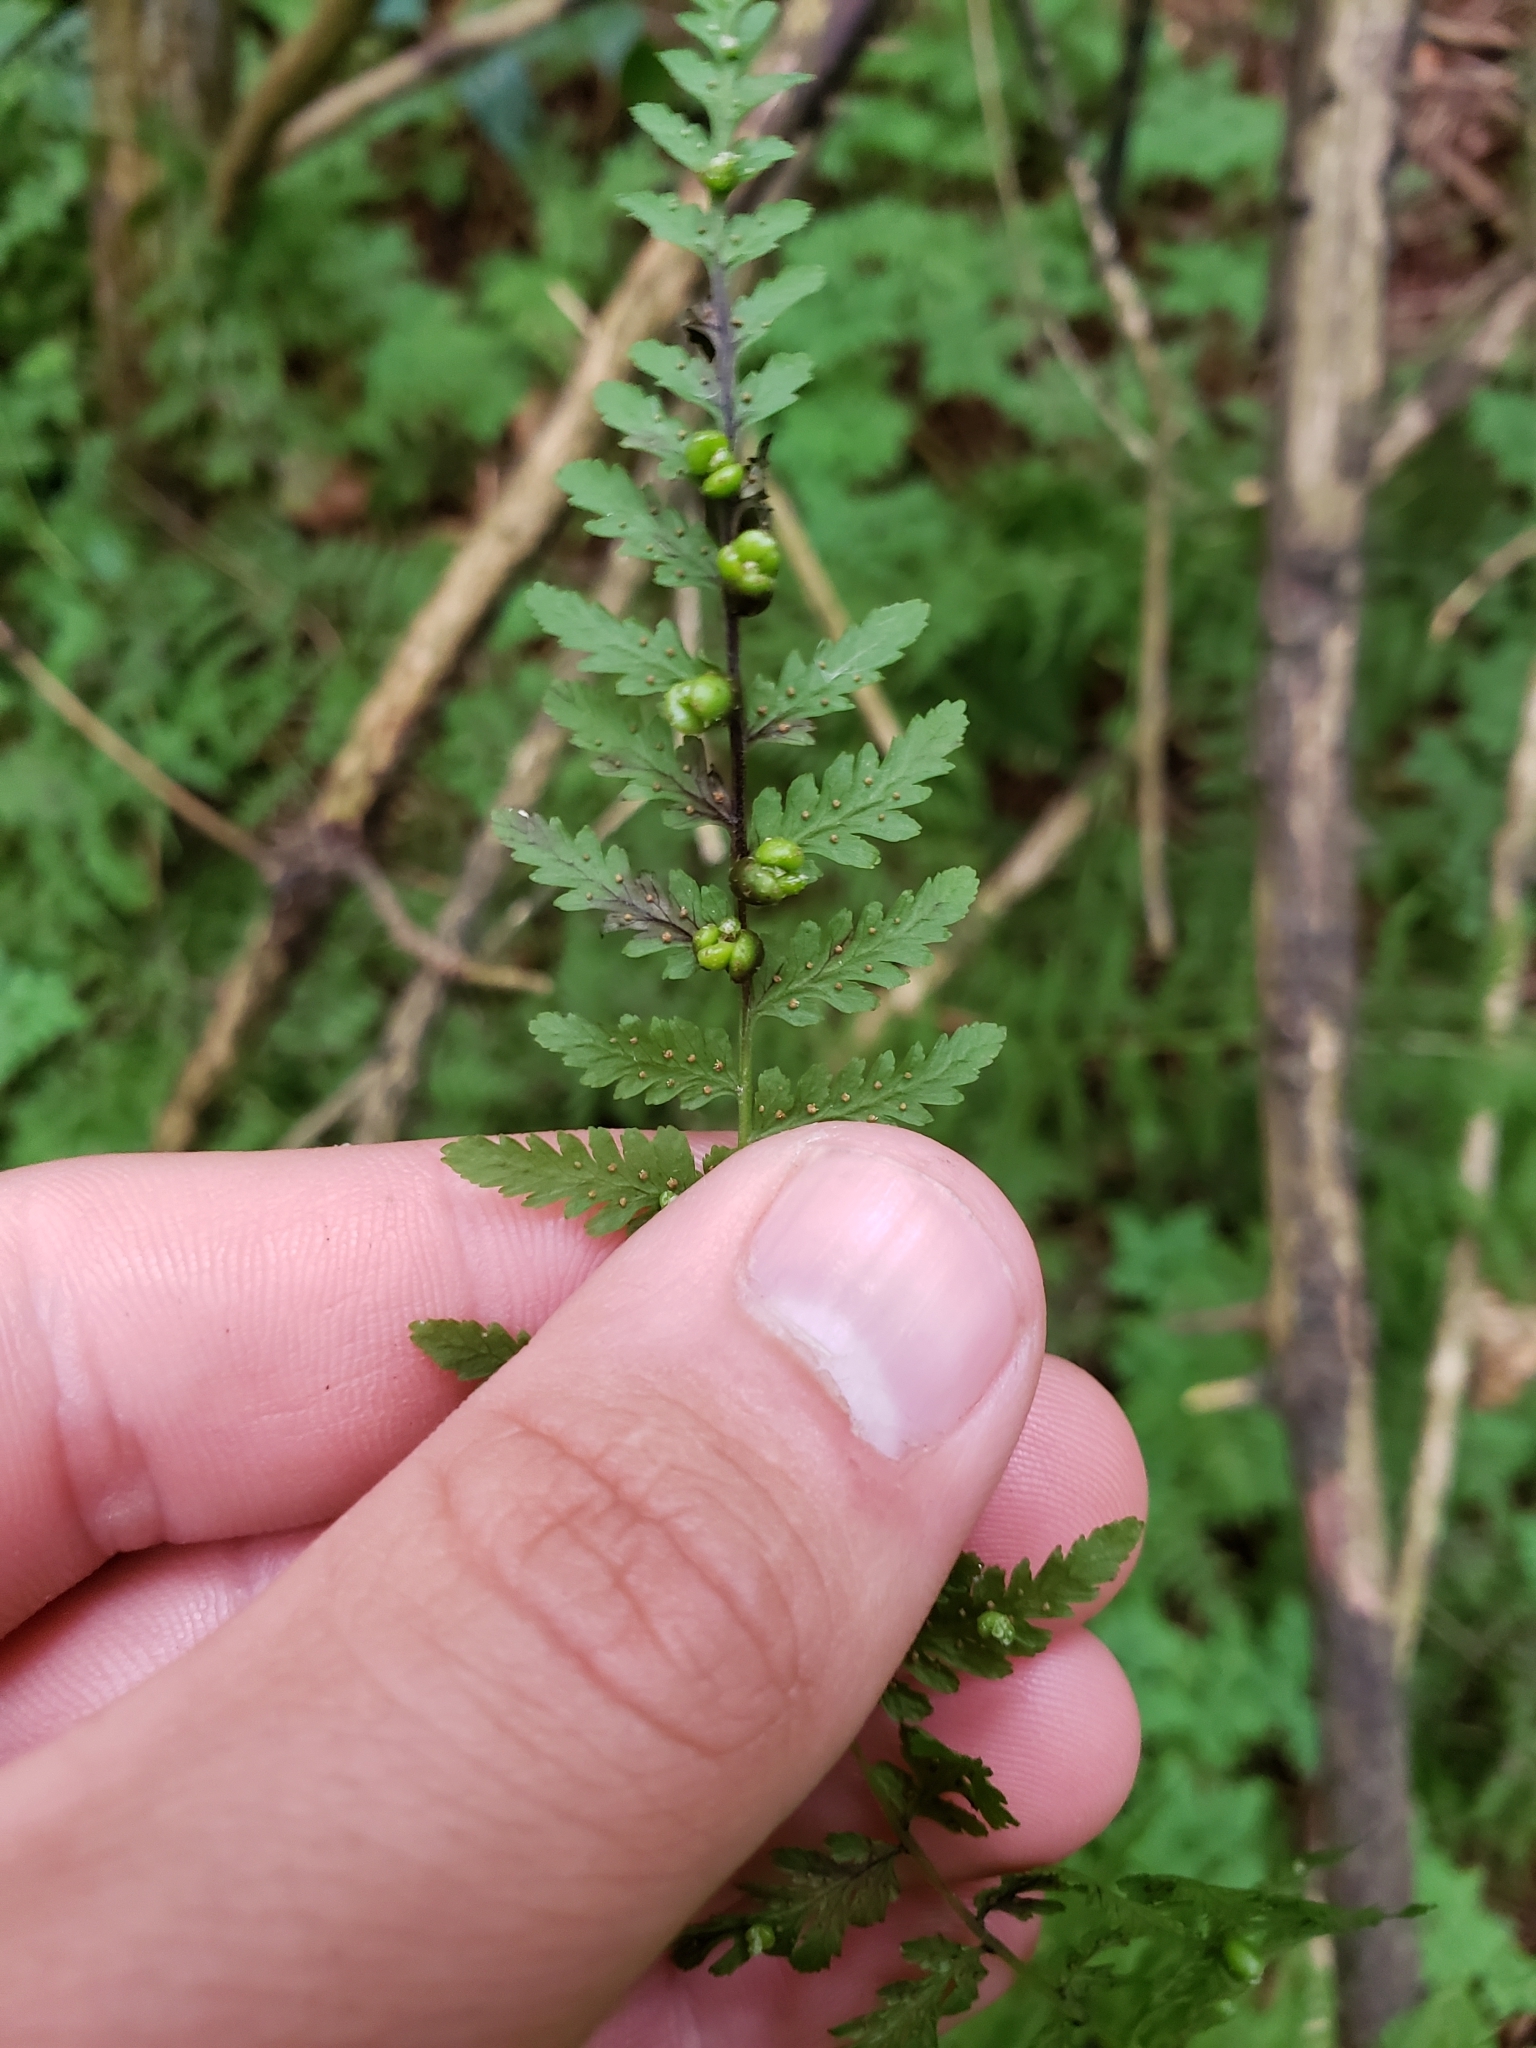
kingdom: Plantae
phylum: Tracheophyta
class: Polypodiopsida
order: Polypodiales
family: Cystopteridaceae
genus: Cystopteris
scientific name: Cystopteris bulbifera
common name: Bulblet bladder fern
